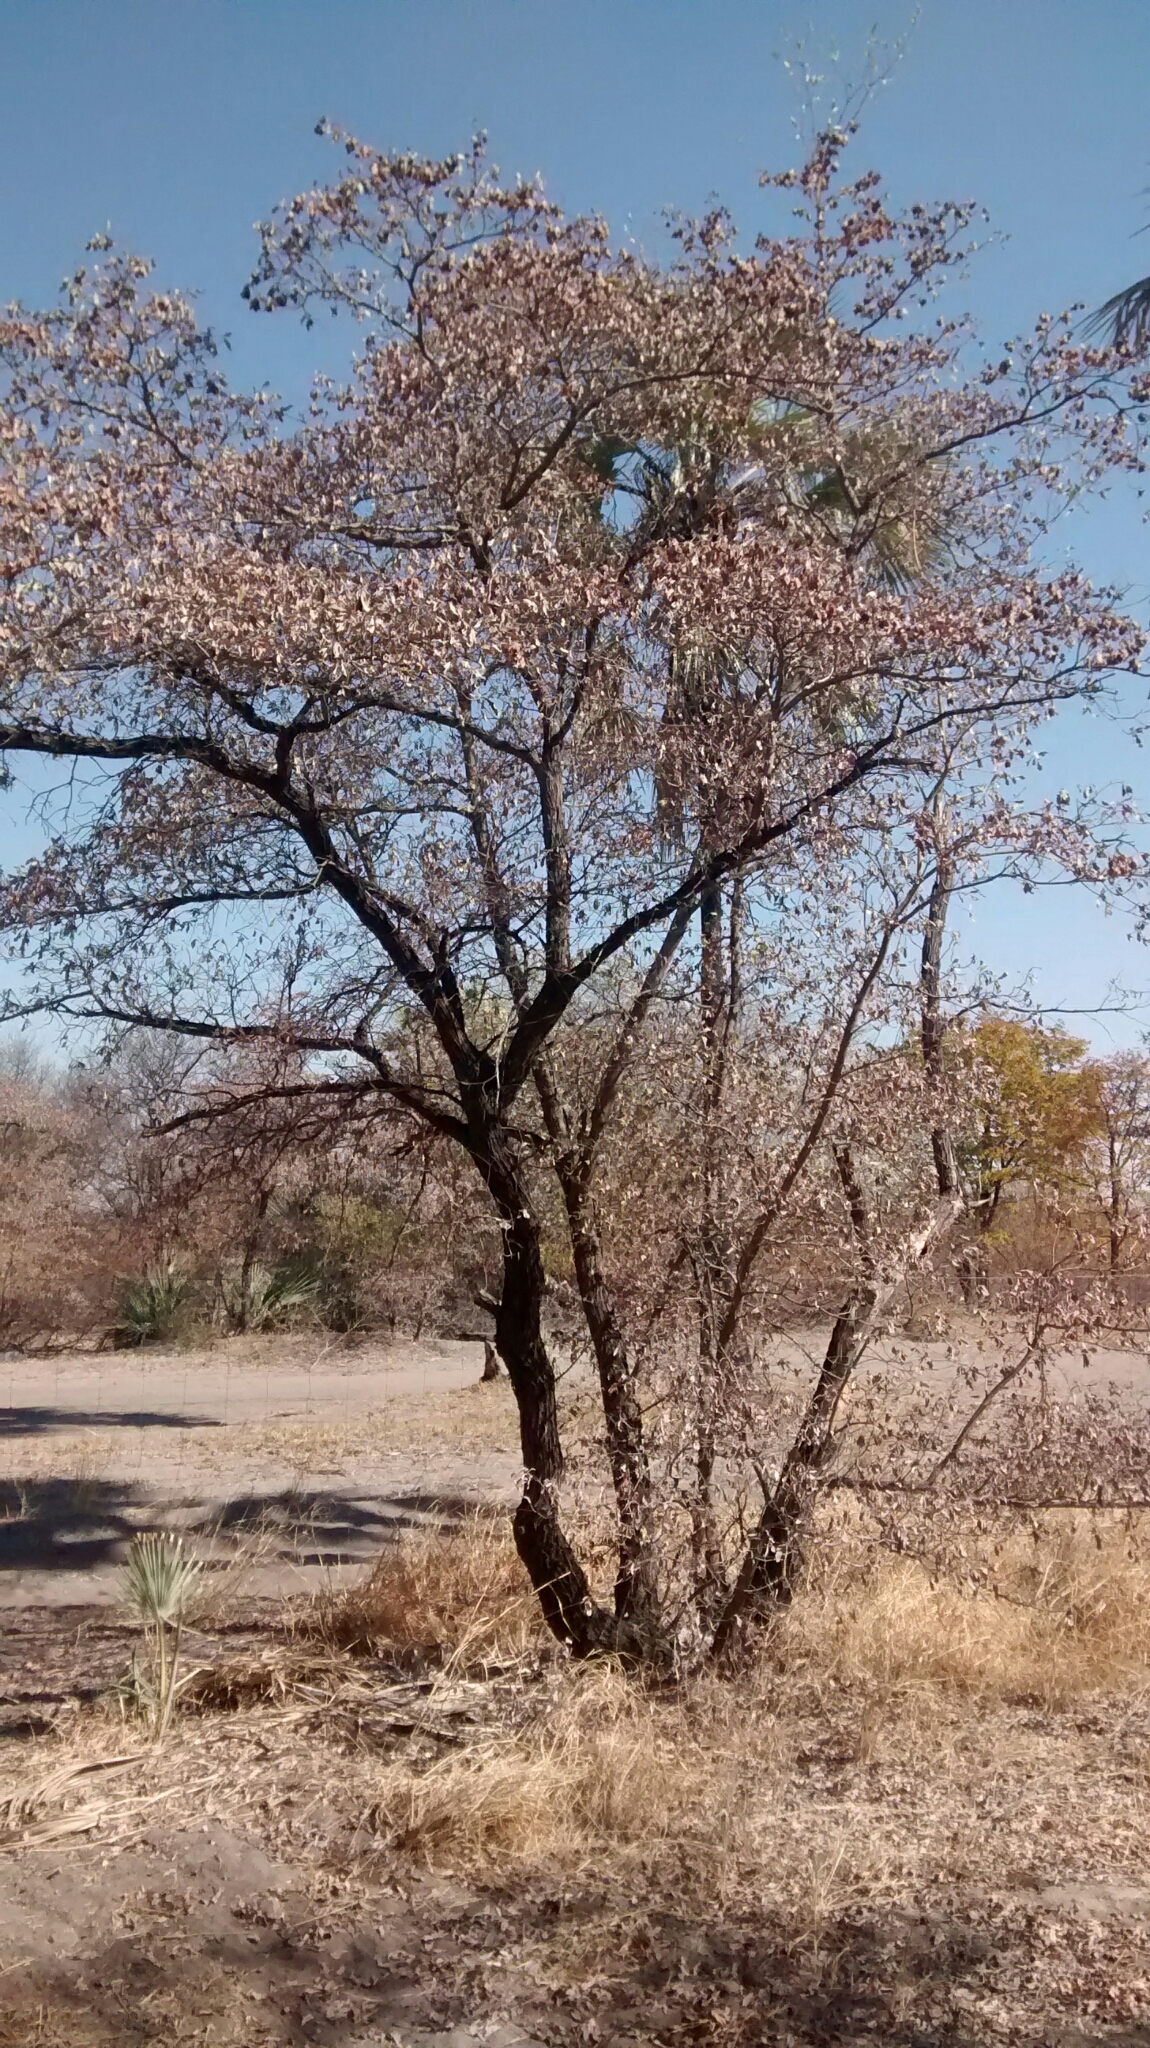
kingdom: Plantae
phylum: Tracheophyta
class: Magnoliopsida
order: Myrtales
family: Combretaceae
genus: Terminalia
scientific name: Terminalia sericea
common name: Clusterleaf
